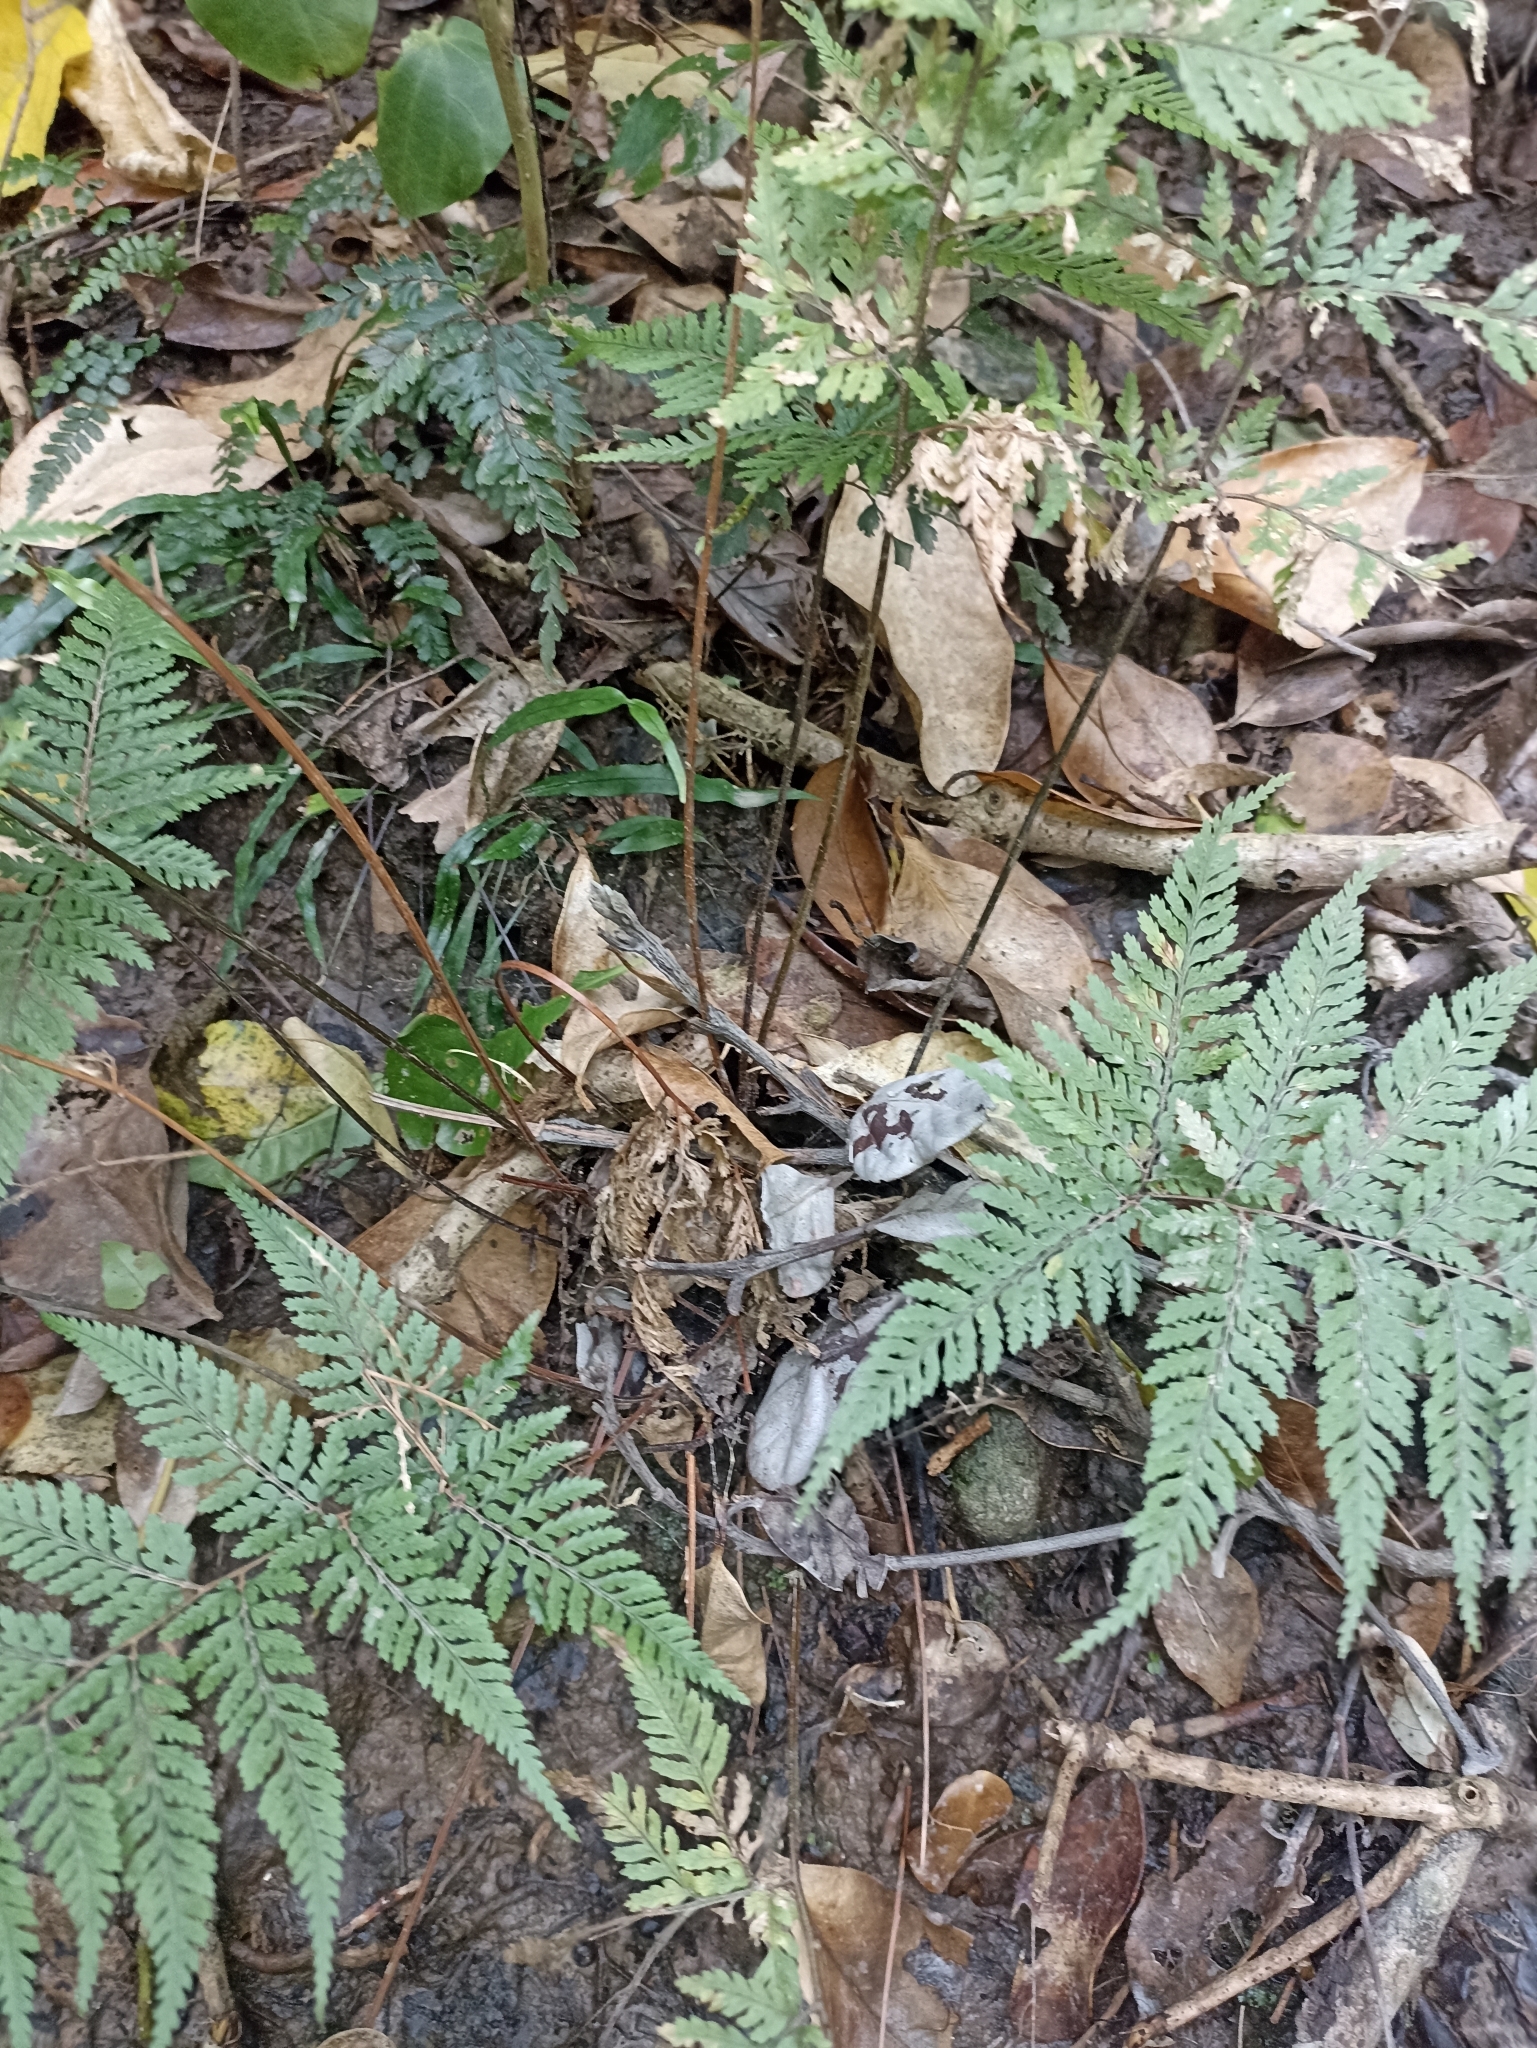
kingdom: Plantae
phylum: Tracheophyta
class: Polypodiopsida
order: Polypodiales
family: Dryopteridaceae
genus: Parapolystichum
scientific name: Parapolystichum glabellum
